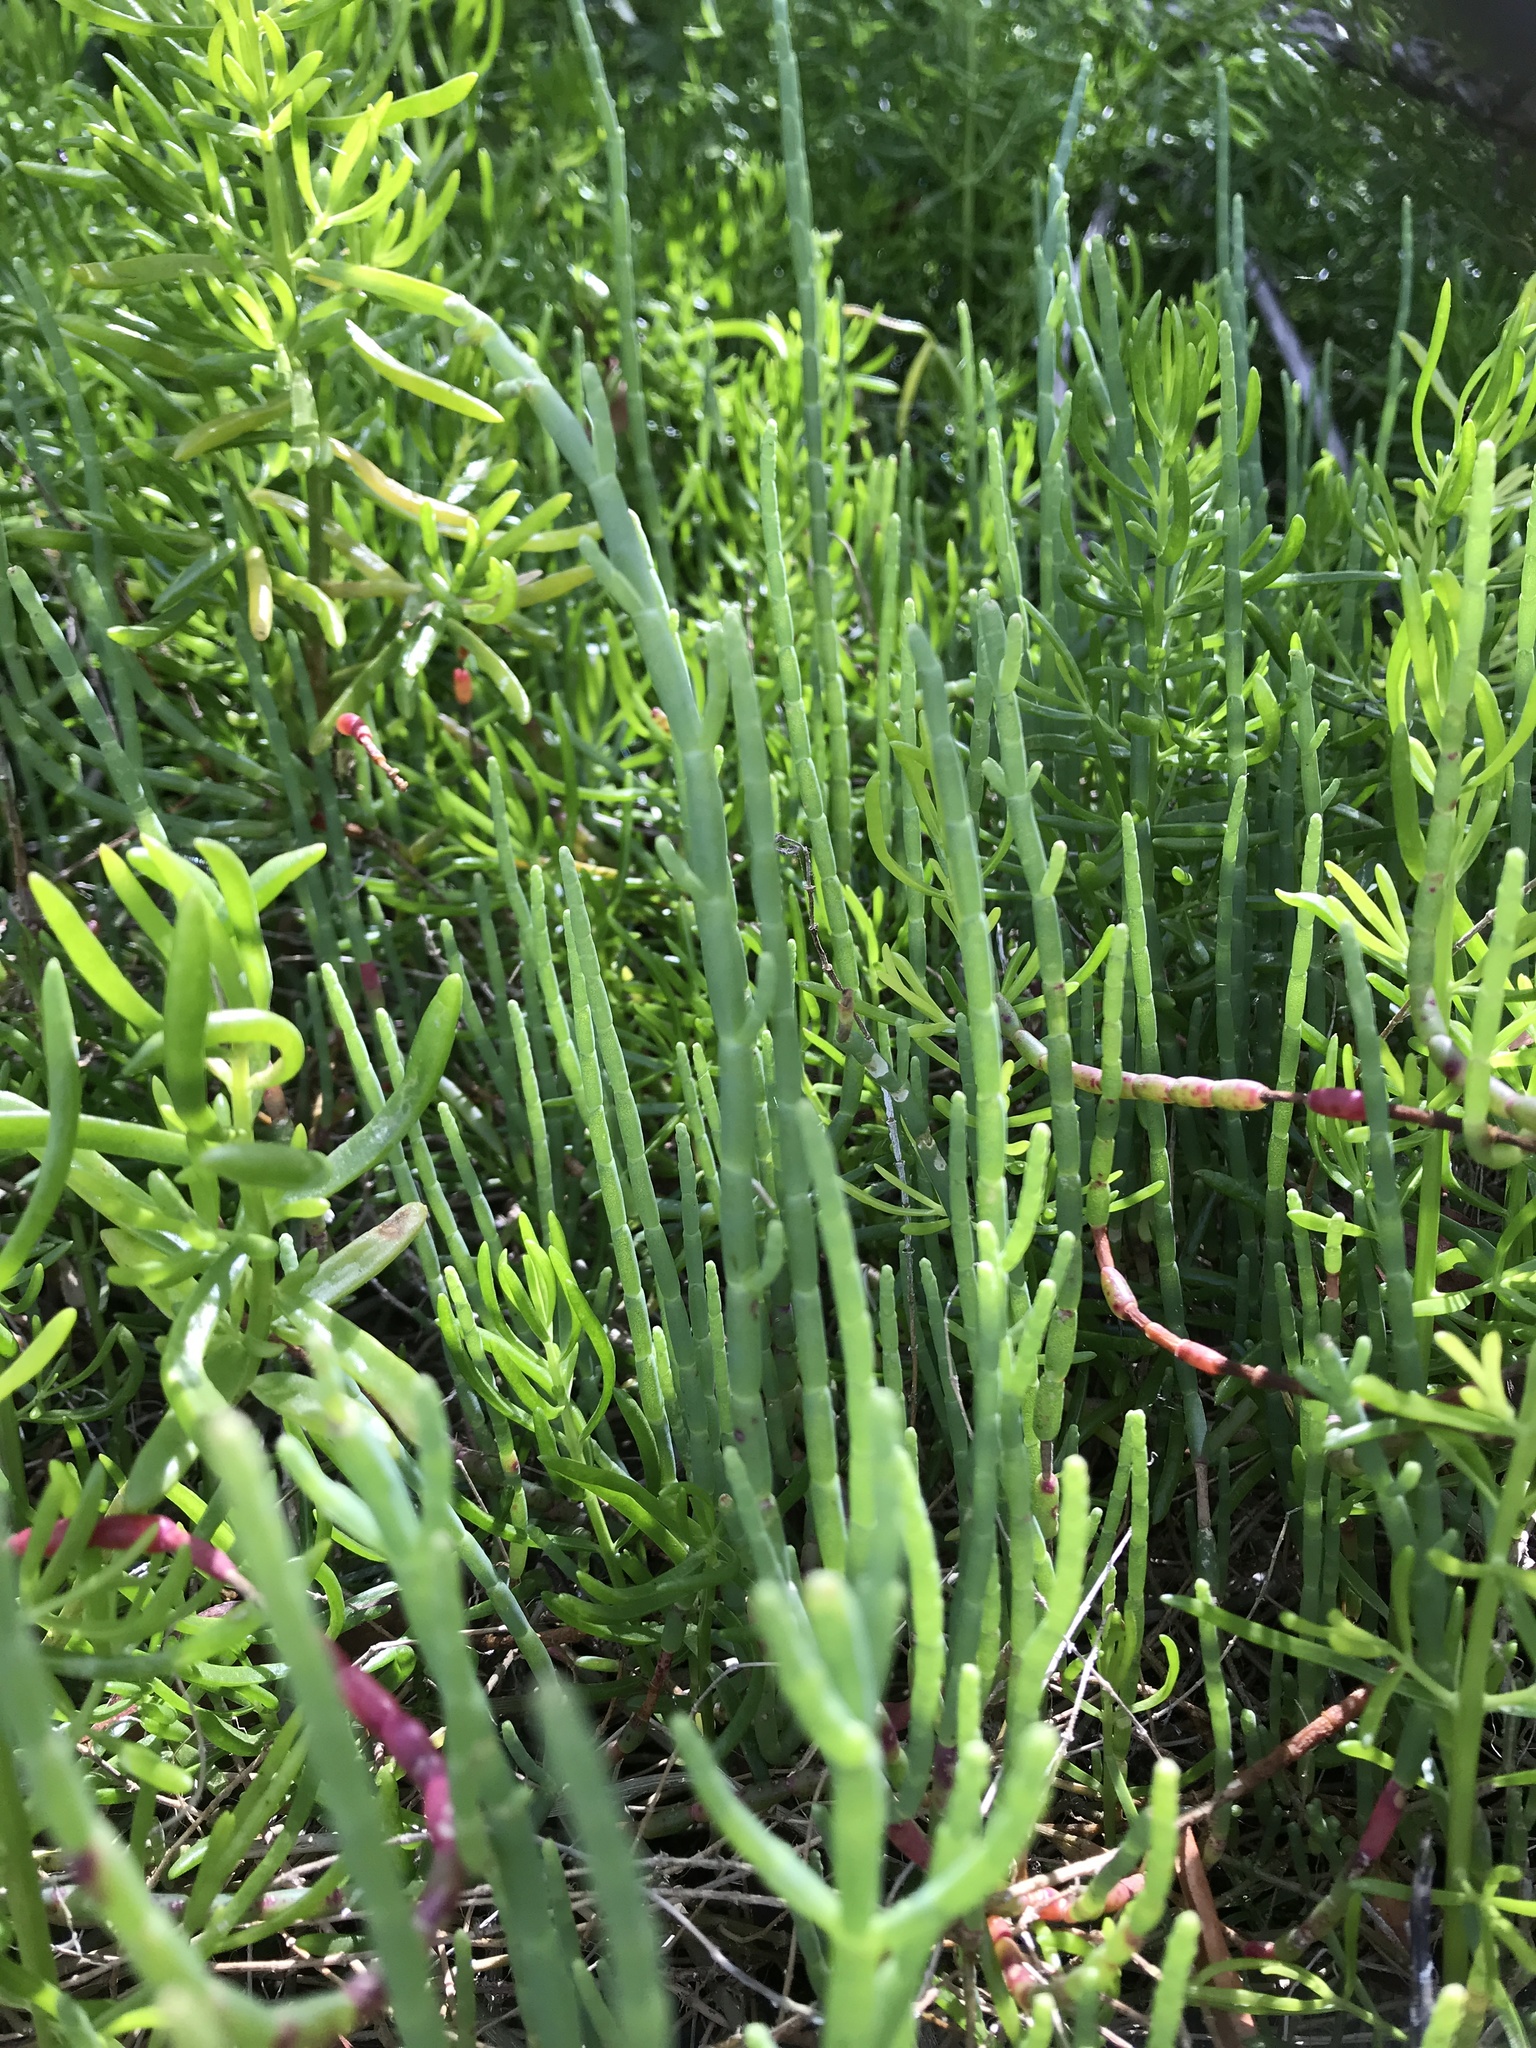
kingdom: Plantae
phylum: Tracheophyta
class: Magnoliopsida
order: Caryophyllales
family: Amaranthaceae
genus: Salicornia
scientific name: Salicornia ambigua
